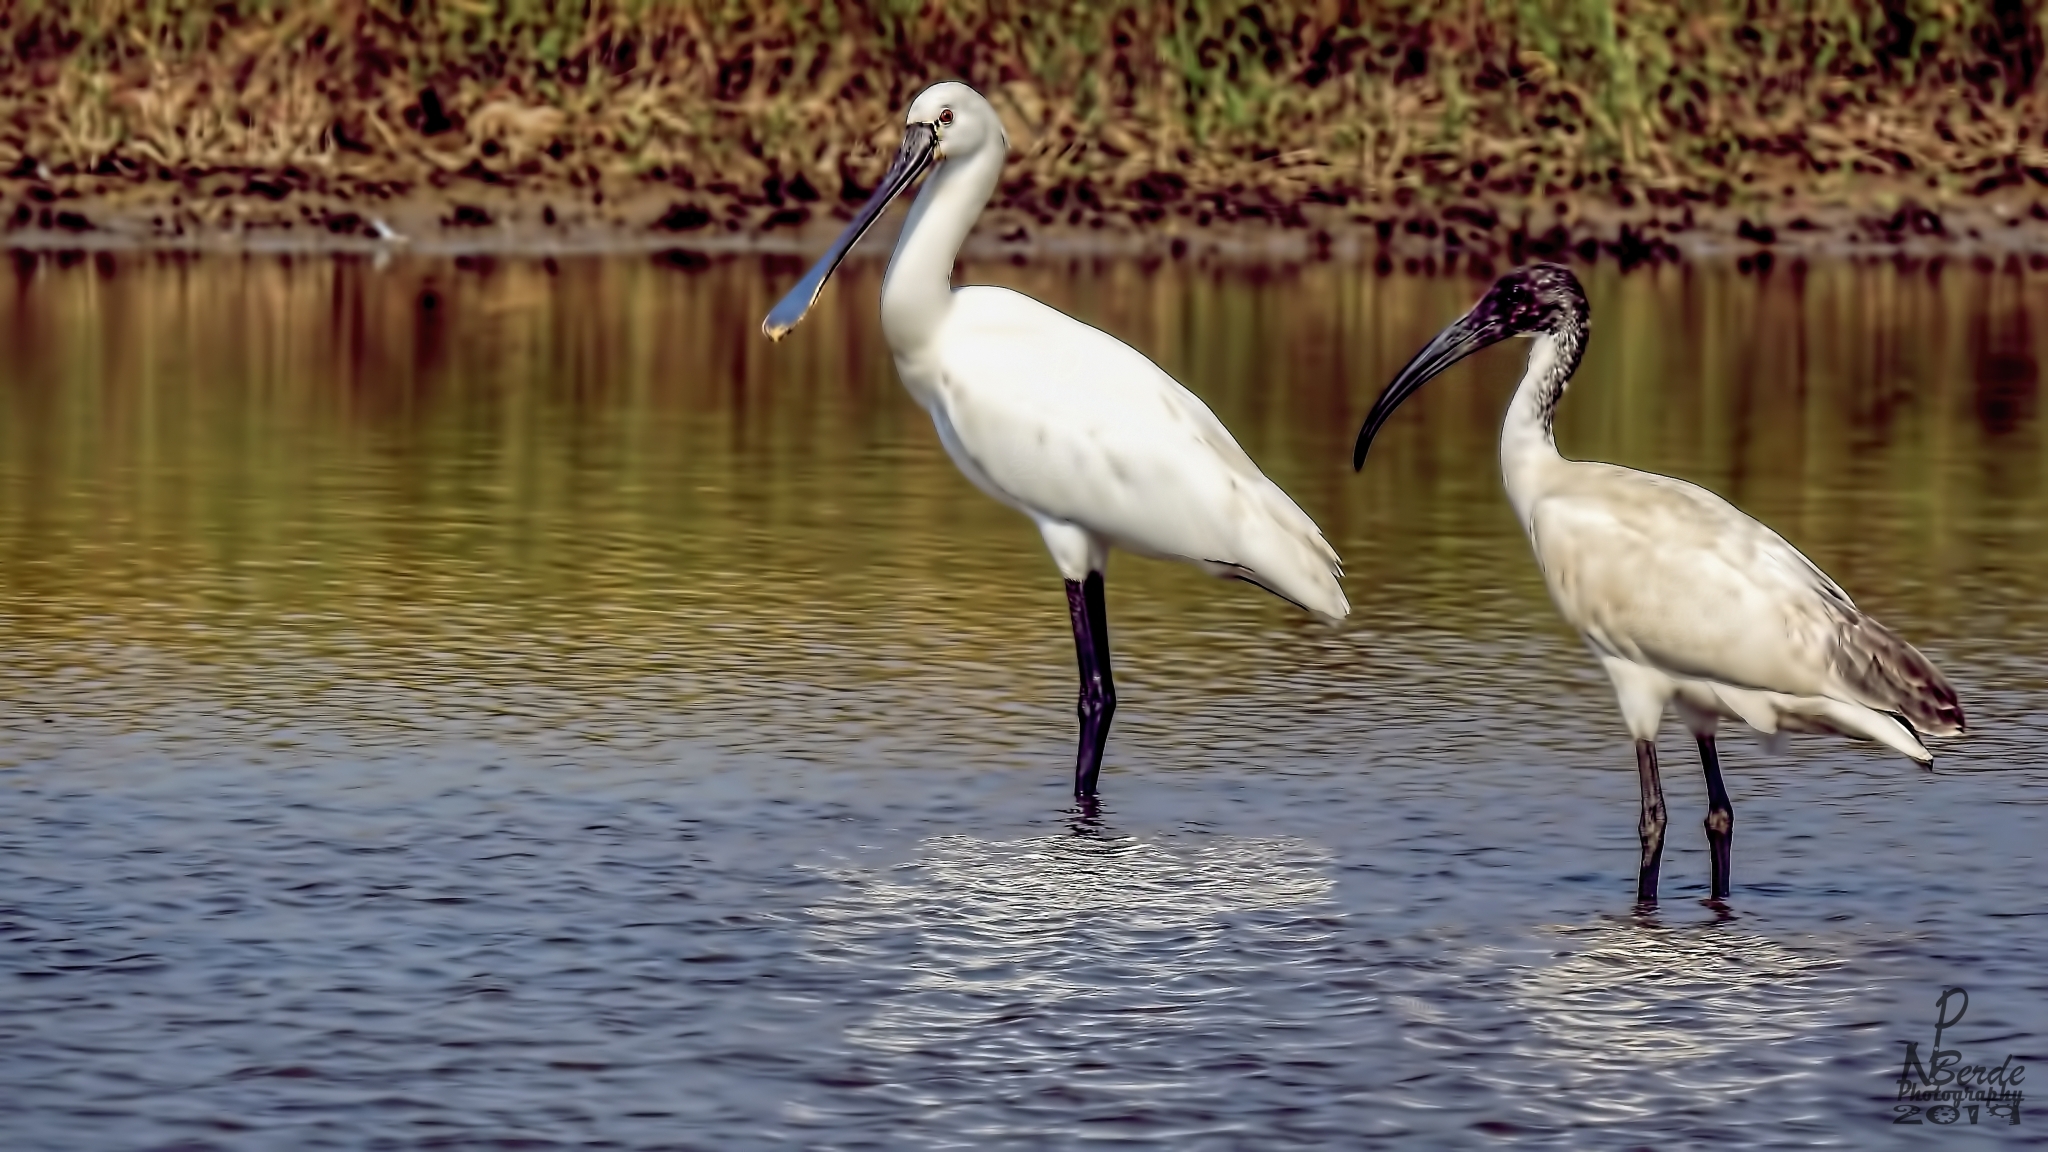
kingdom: Animalia
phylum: Chordata
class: Aves
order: Pelecaniformes
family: Threskiornithidae
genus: Threskiornis
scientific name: Threskiornis melanocephalus
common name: Black-headed ibis
